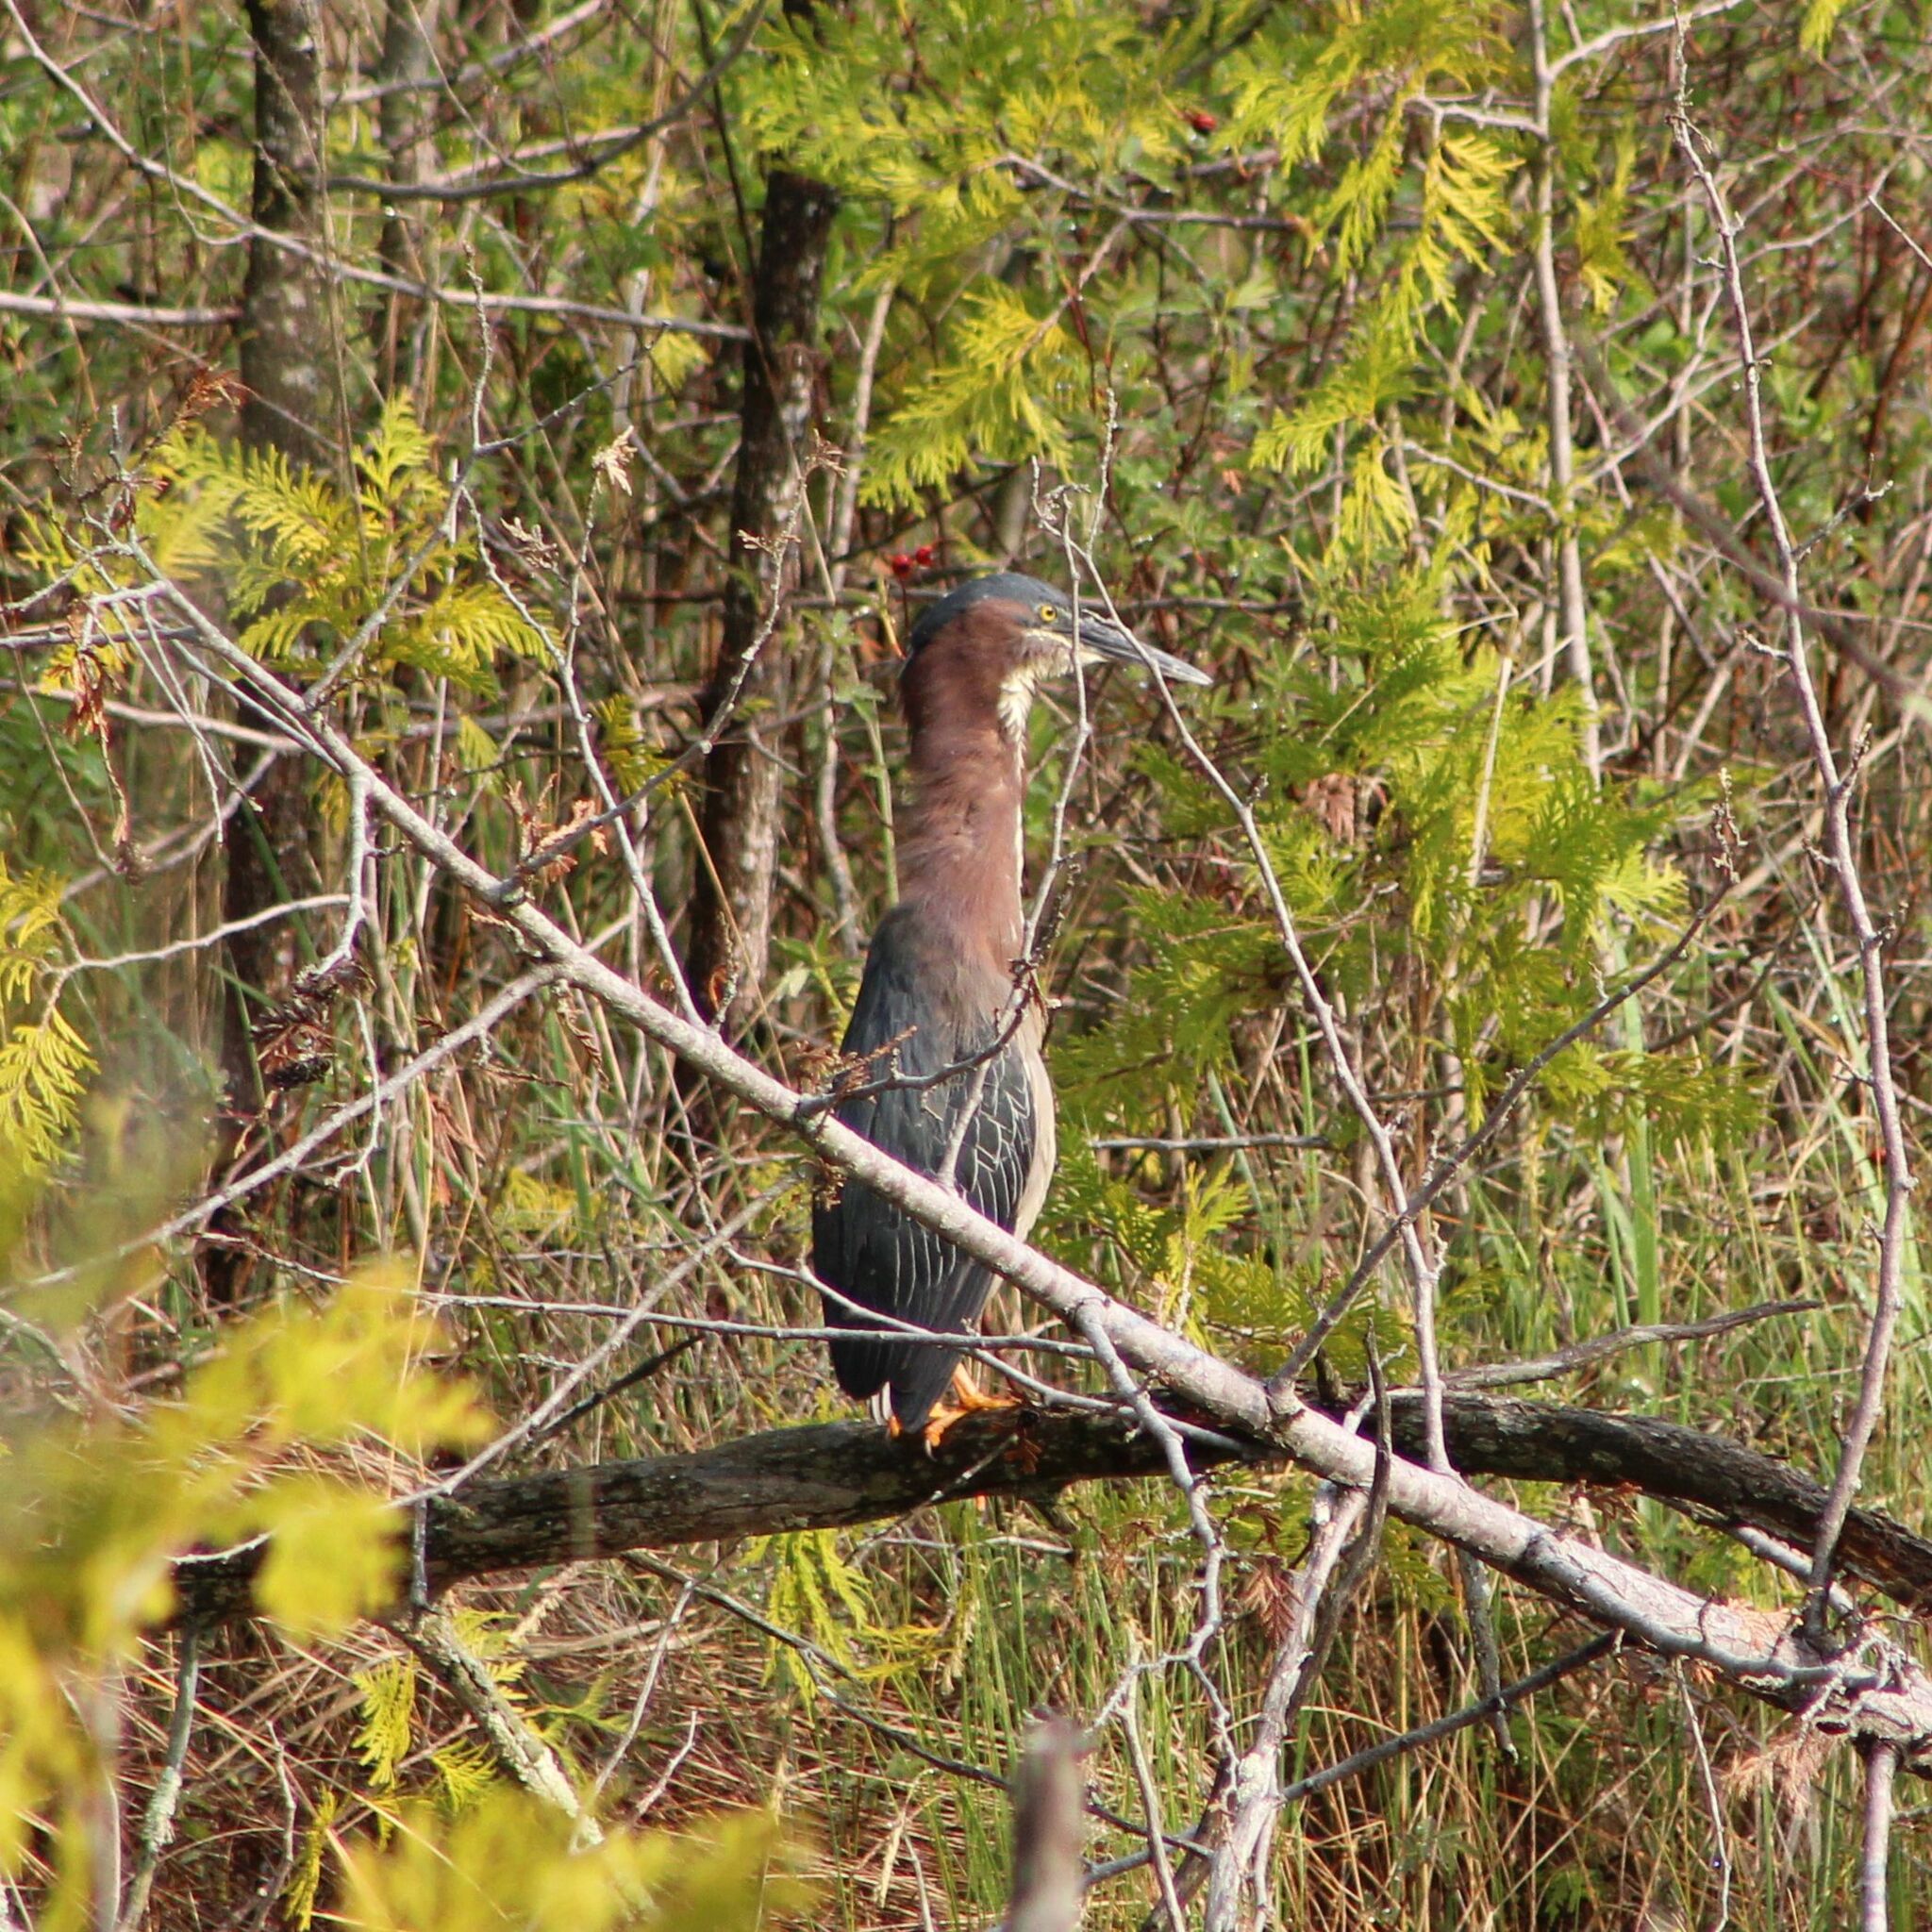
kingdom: Animalia
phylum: Chordata
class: Aves
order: Pelecaniformes
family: Ardeidae
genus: Butorides
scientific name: Butorides virescens
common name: Green heron
